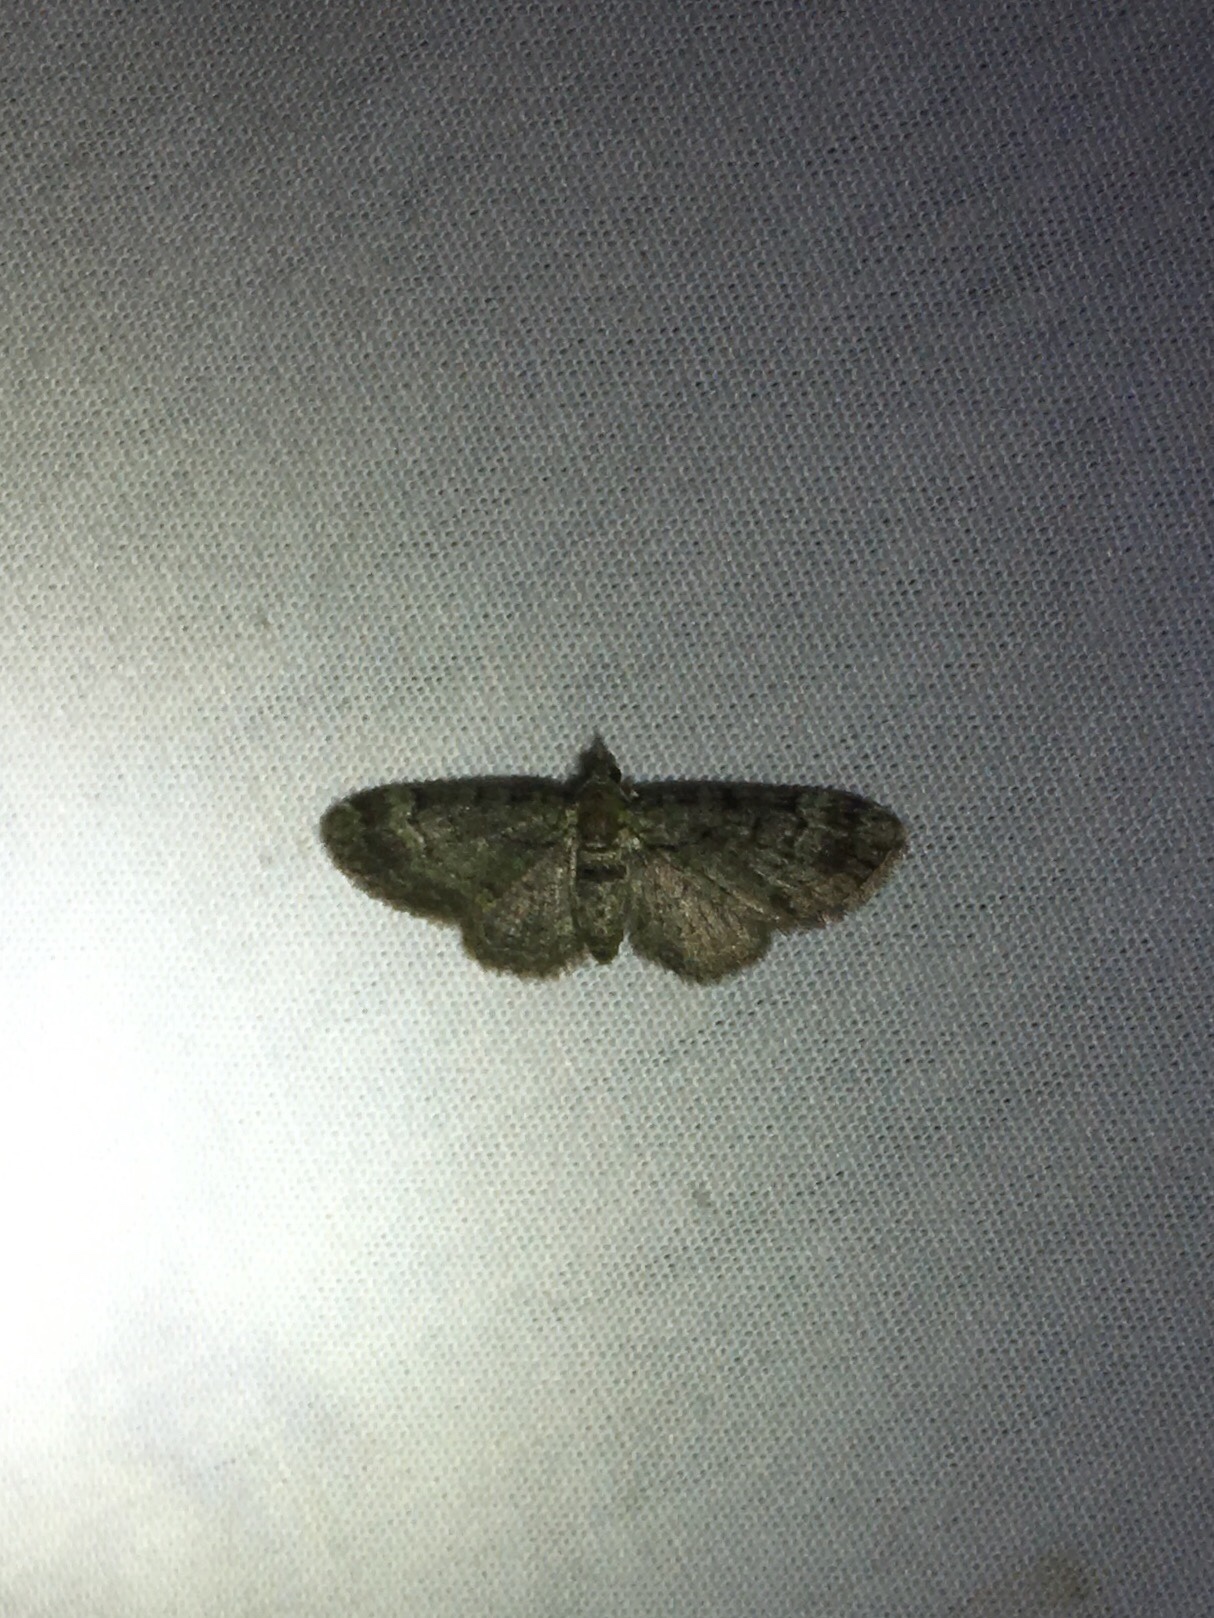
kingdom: Animalia
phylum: Arthropoda
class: Insecta
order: Lepidoptera
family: Geometridae
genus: Pasiphila
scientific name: Pasiphila rectangulata
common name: Green pug
